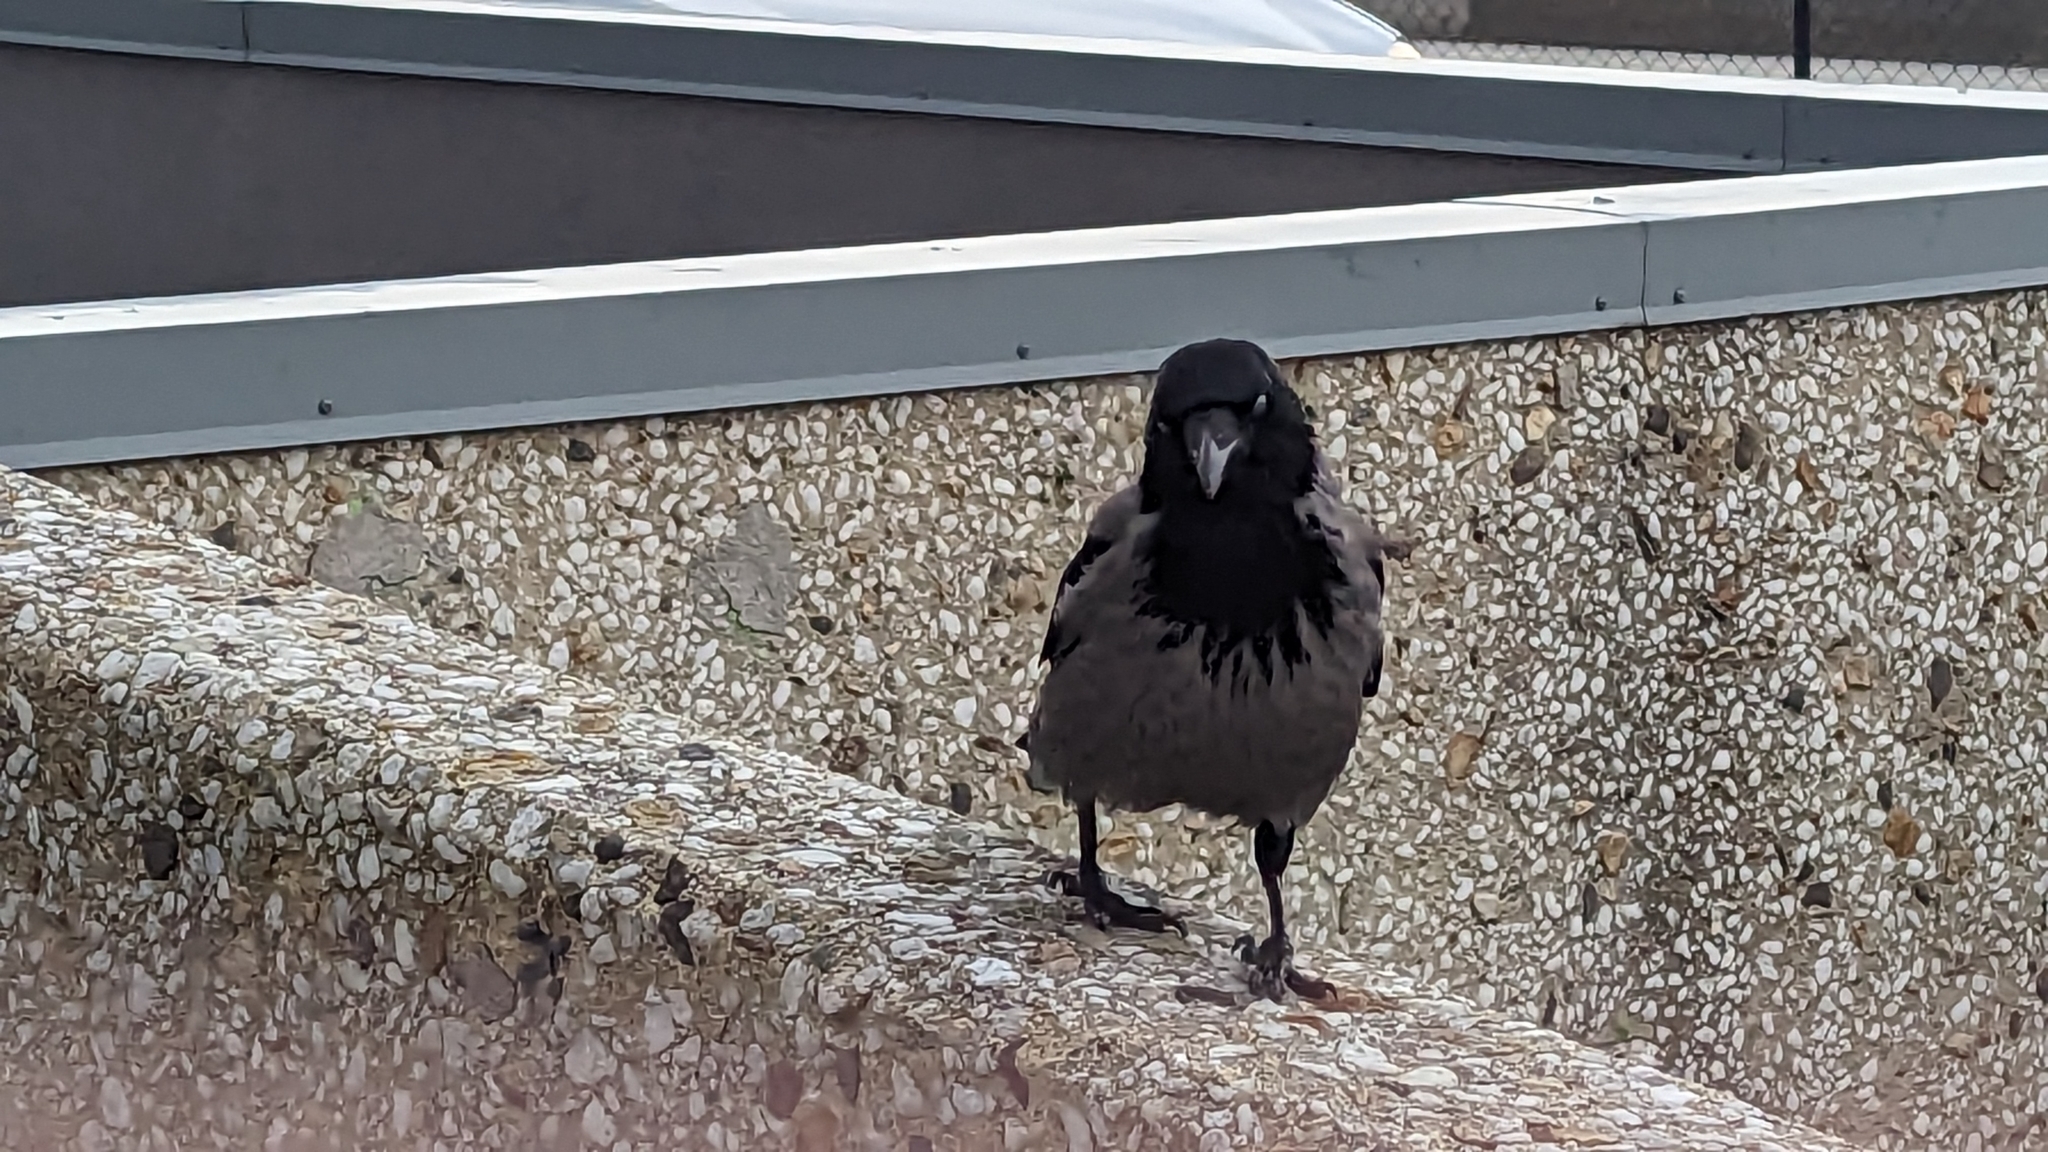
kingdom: Animalia
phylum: Chordata
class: Aves
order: Passeriformes
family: Corvidae
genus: Corvus
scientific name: Corvus cornix
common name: Hooded crow
